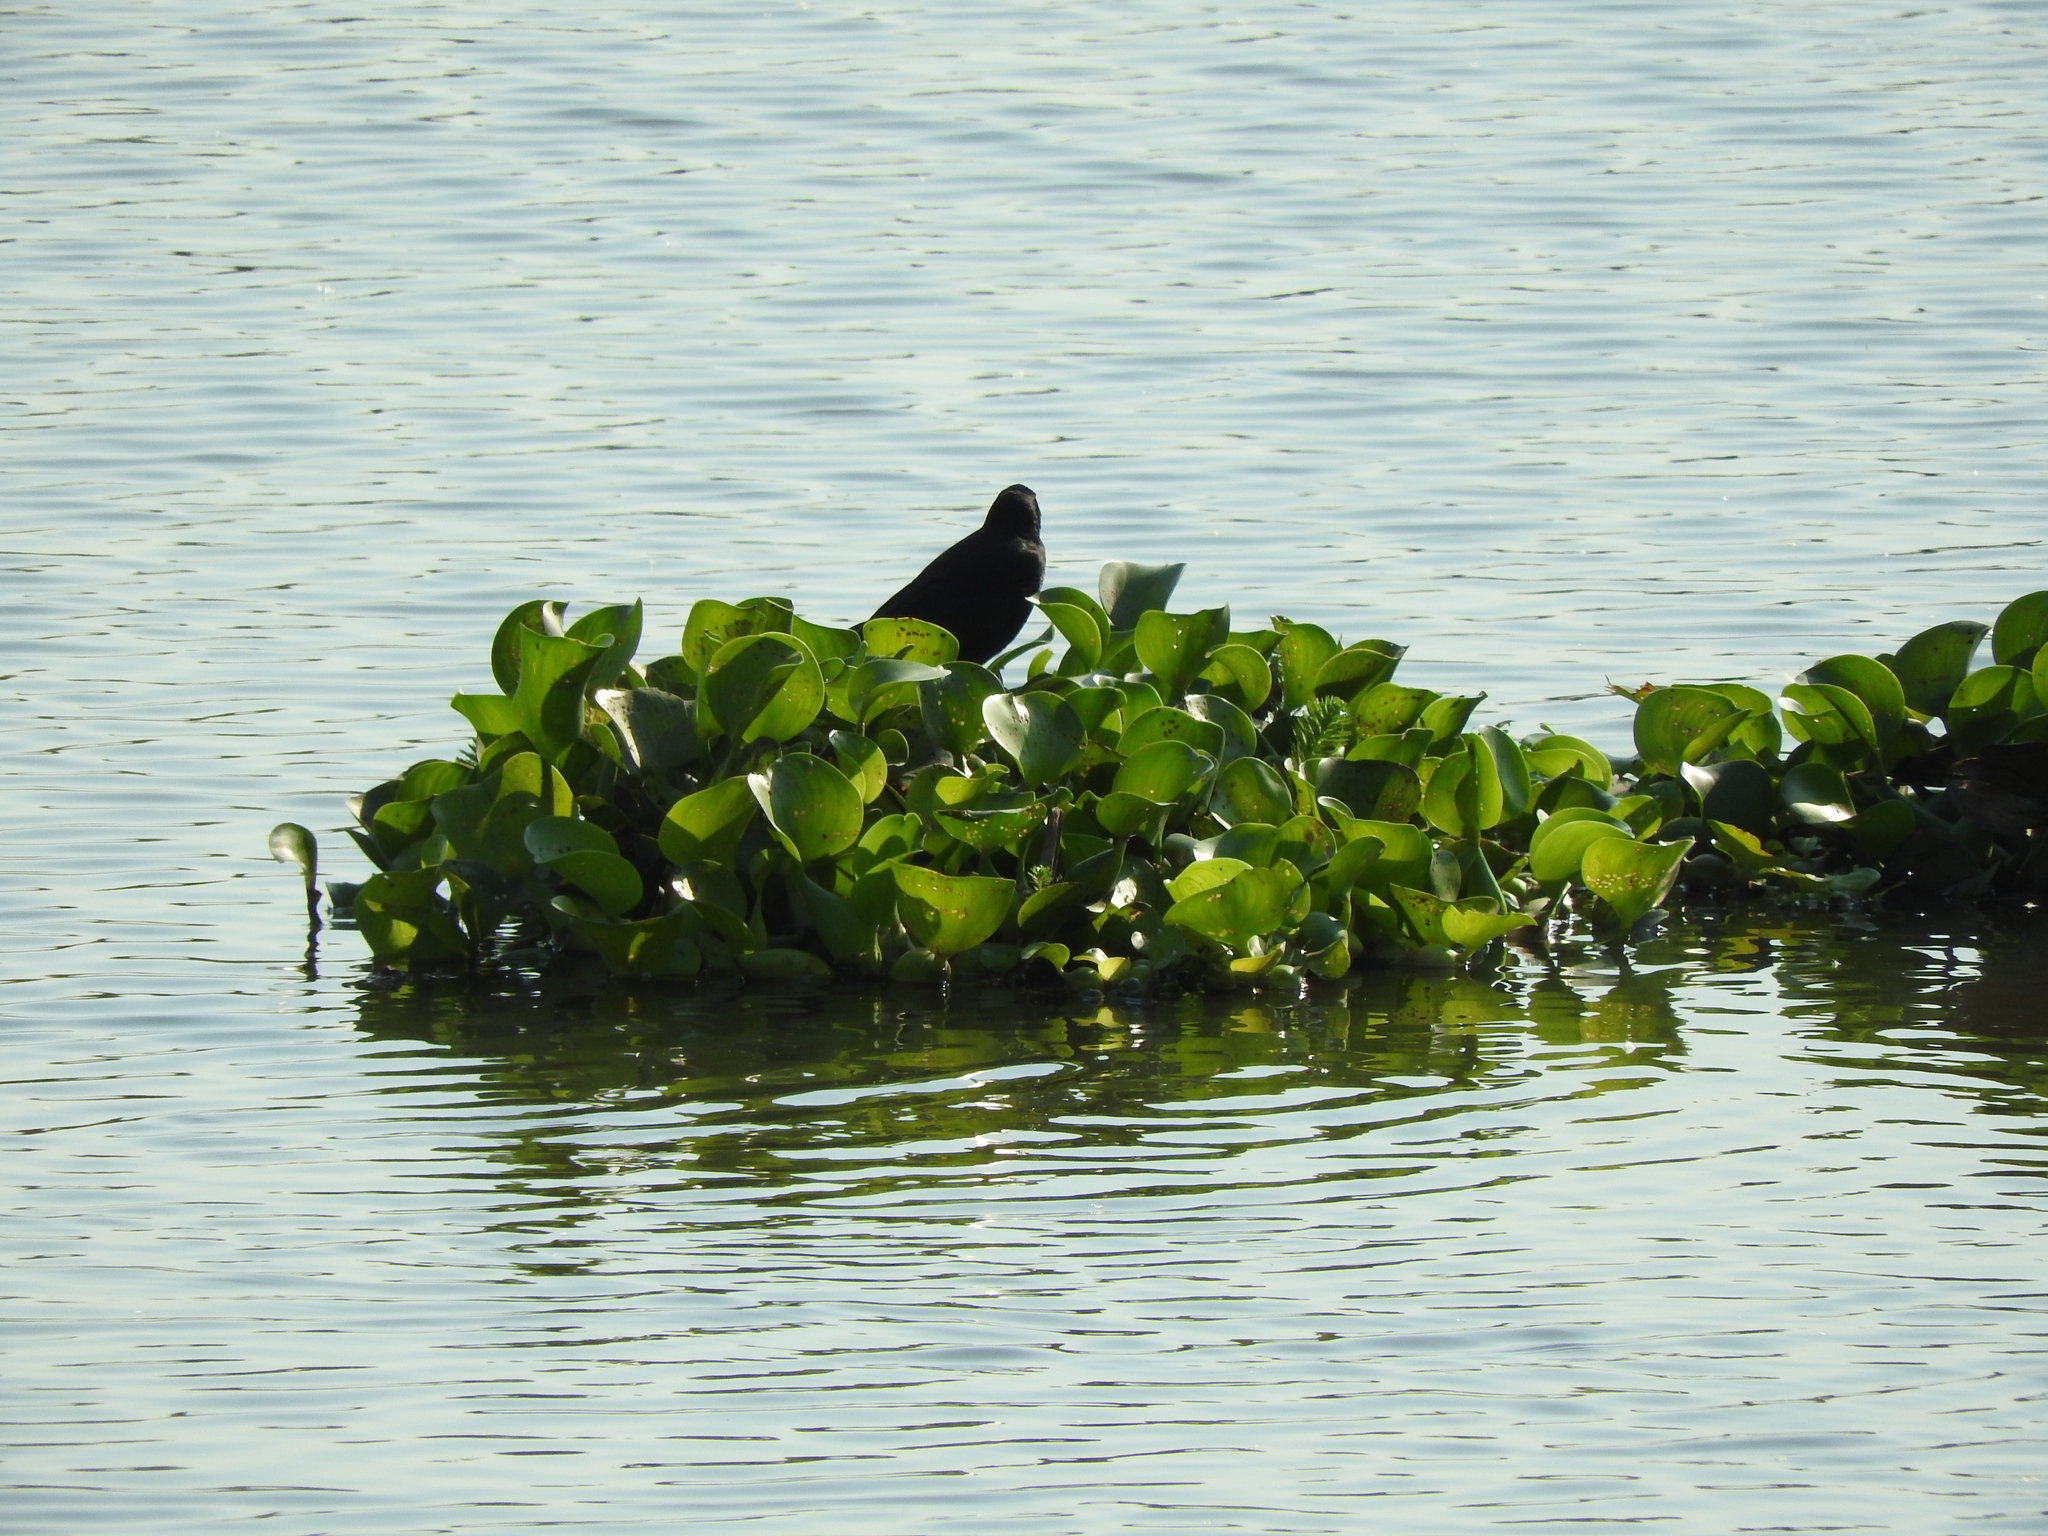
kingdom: Animalia
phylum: Chordata
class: Aves
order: Passeriformes
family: Icteridae
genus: Quiscalus
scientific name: Quiscalus mexicanus
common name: Great-tailed grackle
